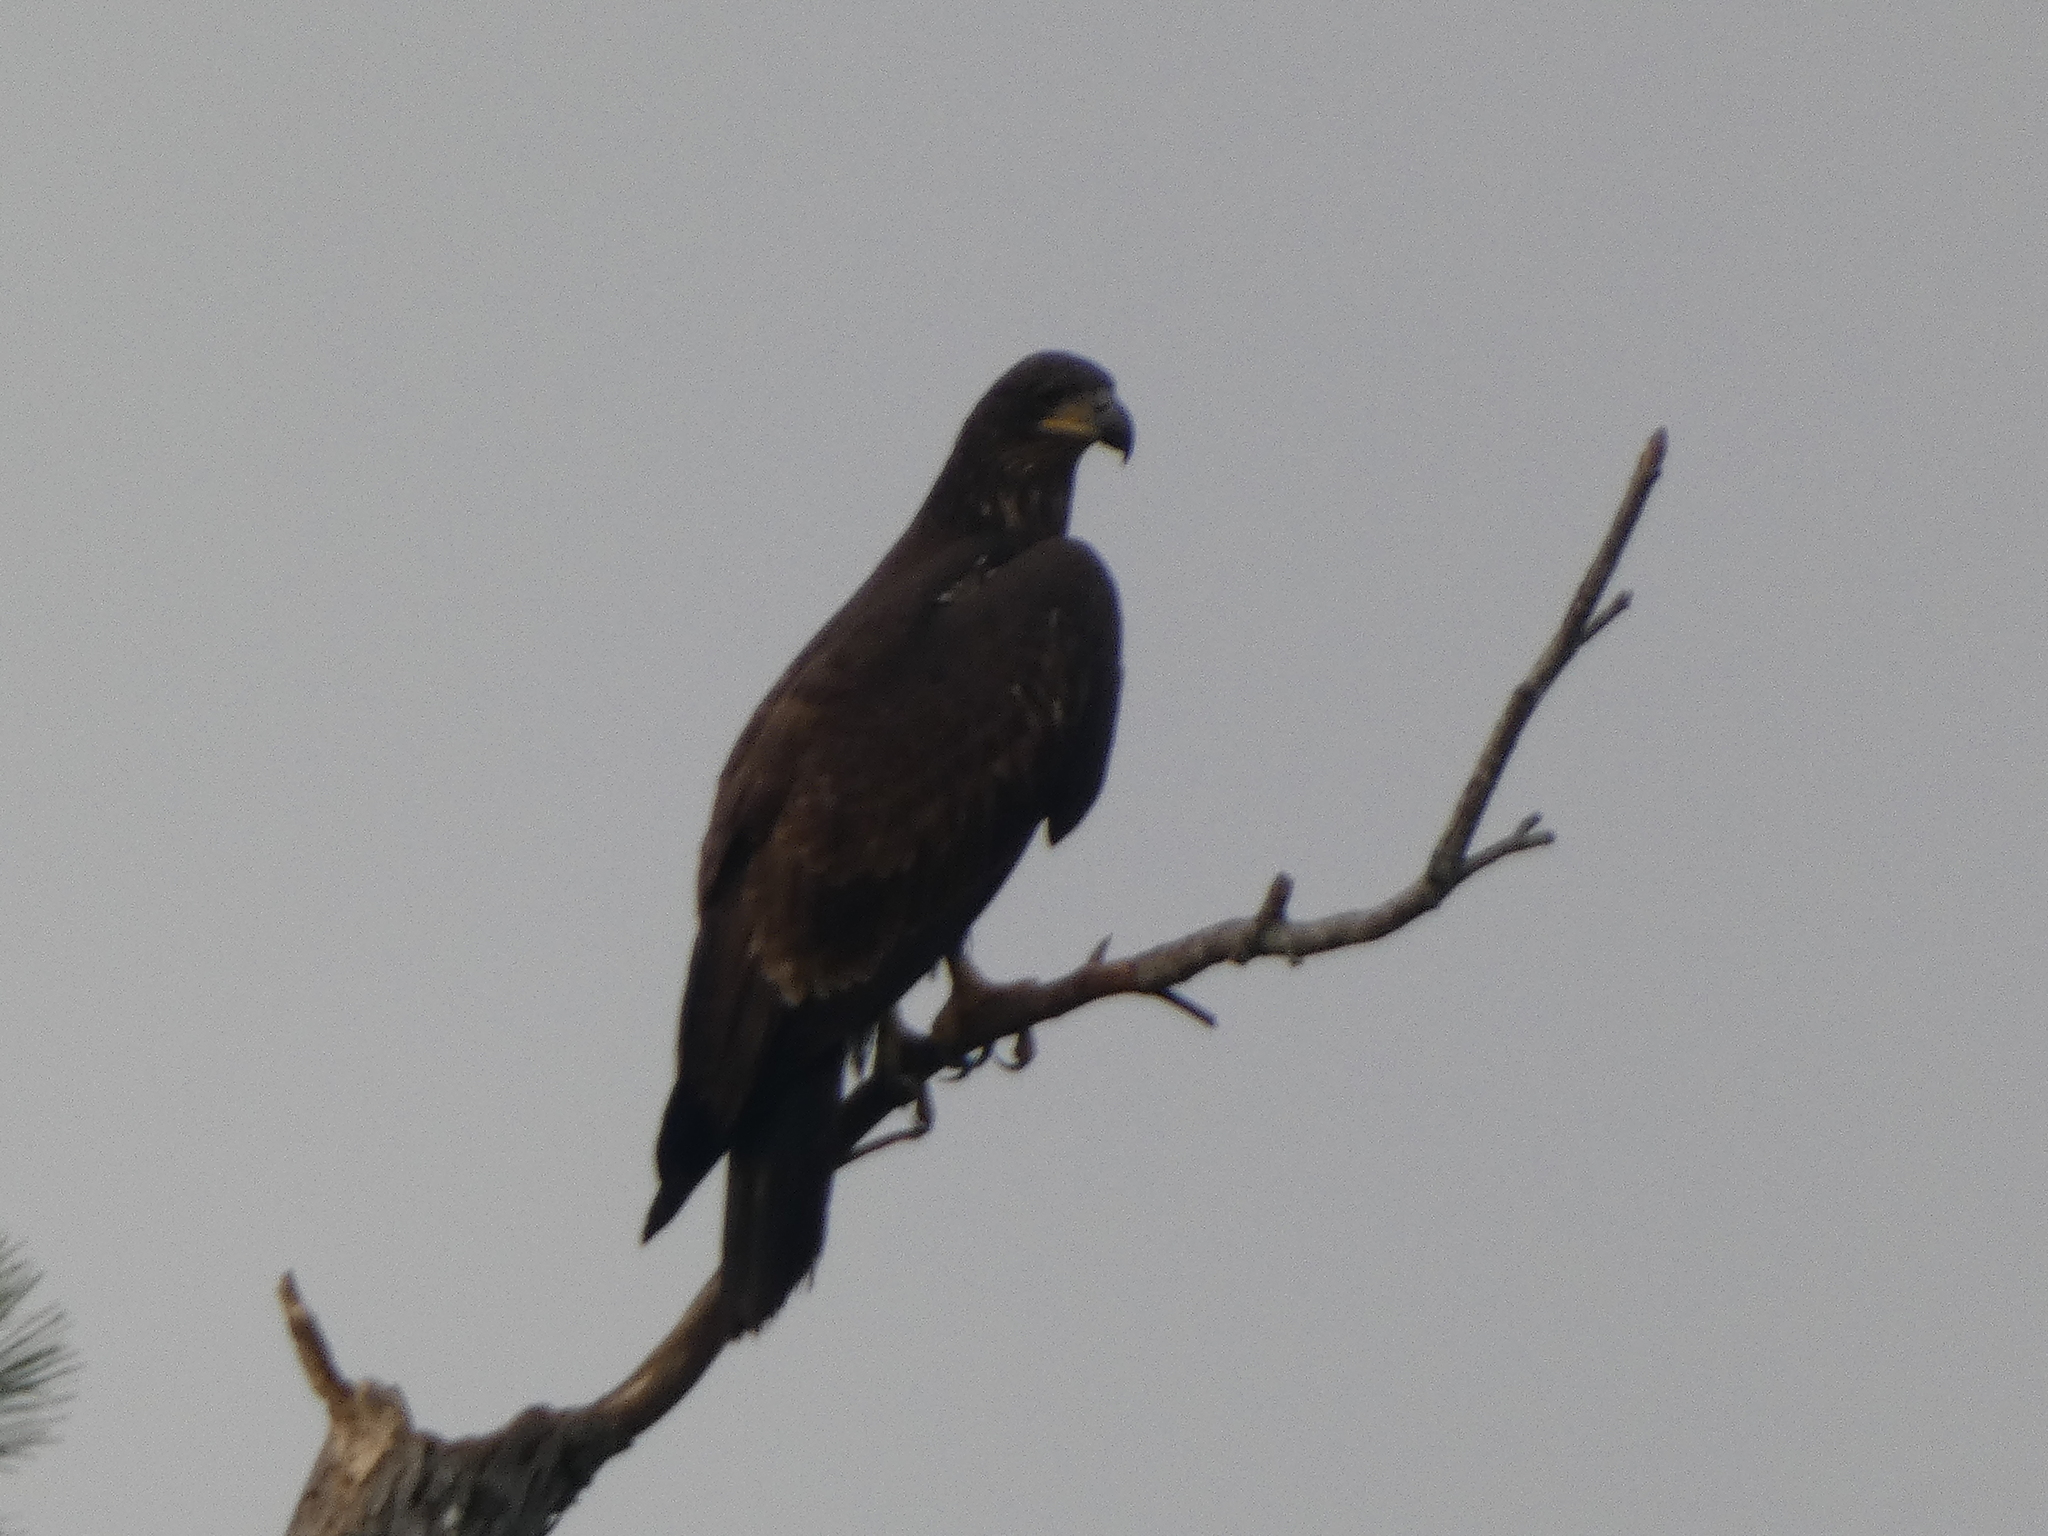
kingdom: Animalia
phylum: Chordata
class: Aves
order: Accipitriformes
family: Accipitridae
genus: Haliaeetus
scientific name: Haliaeetus leucocephalus
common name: Bald eagle
